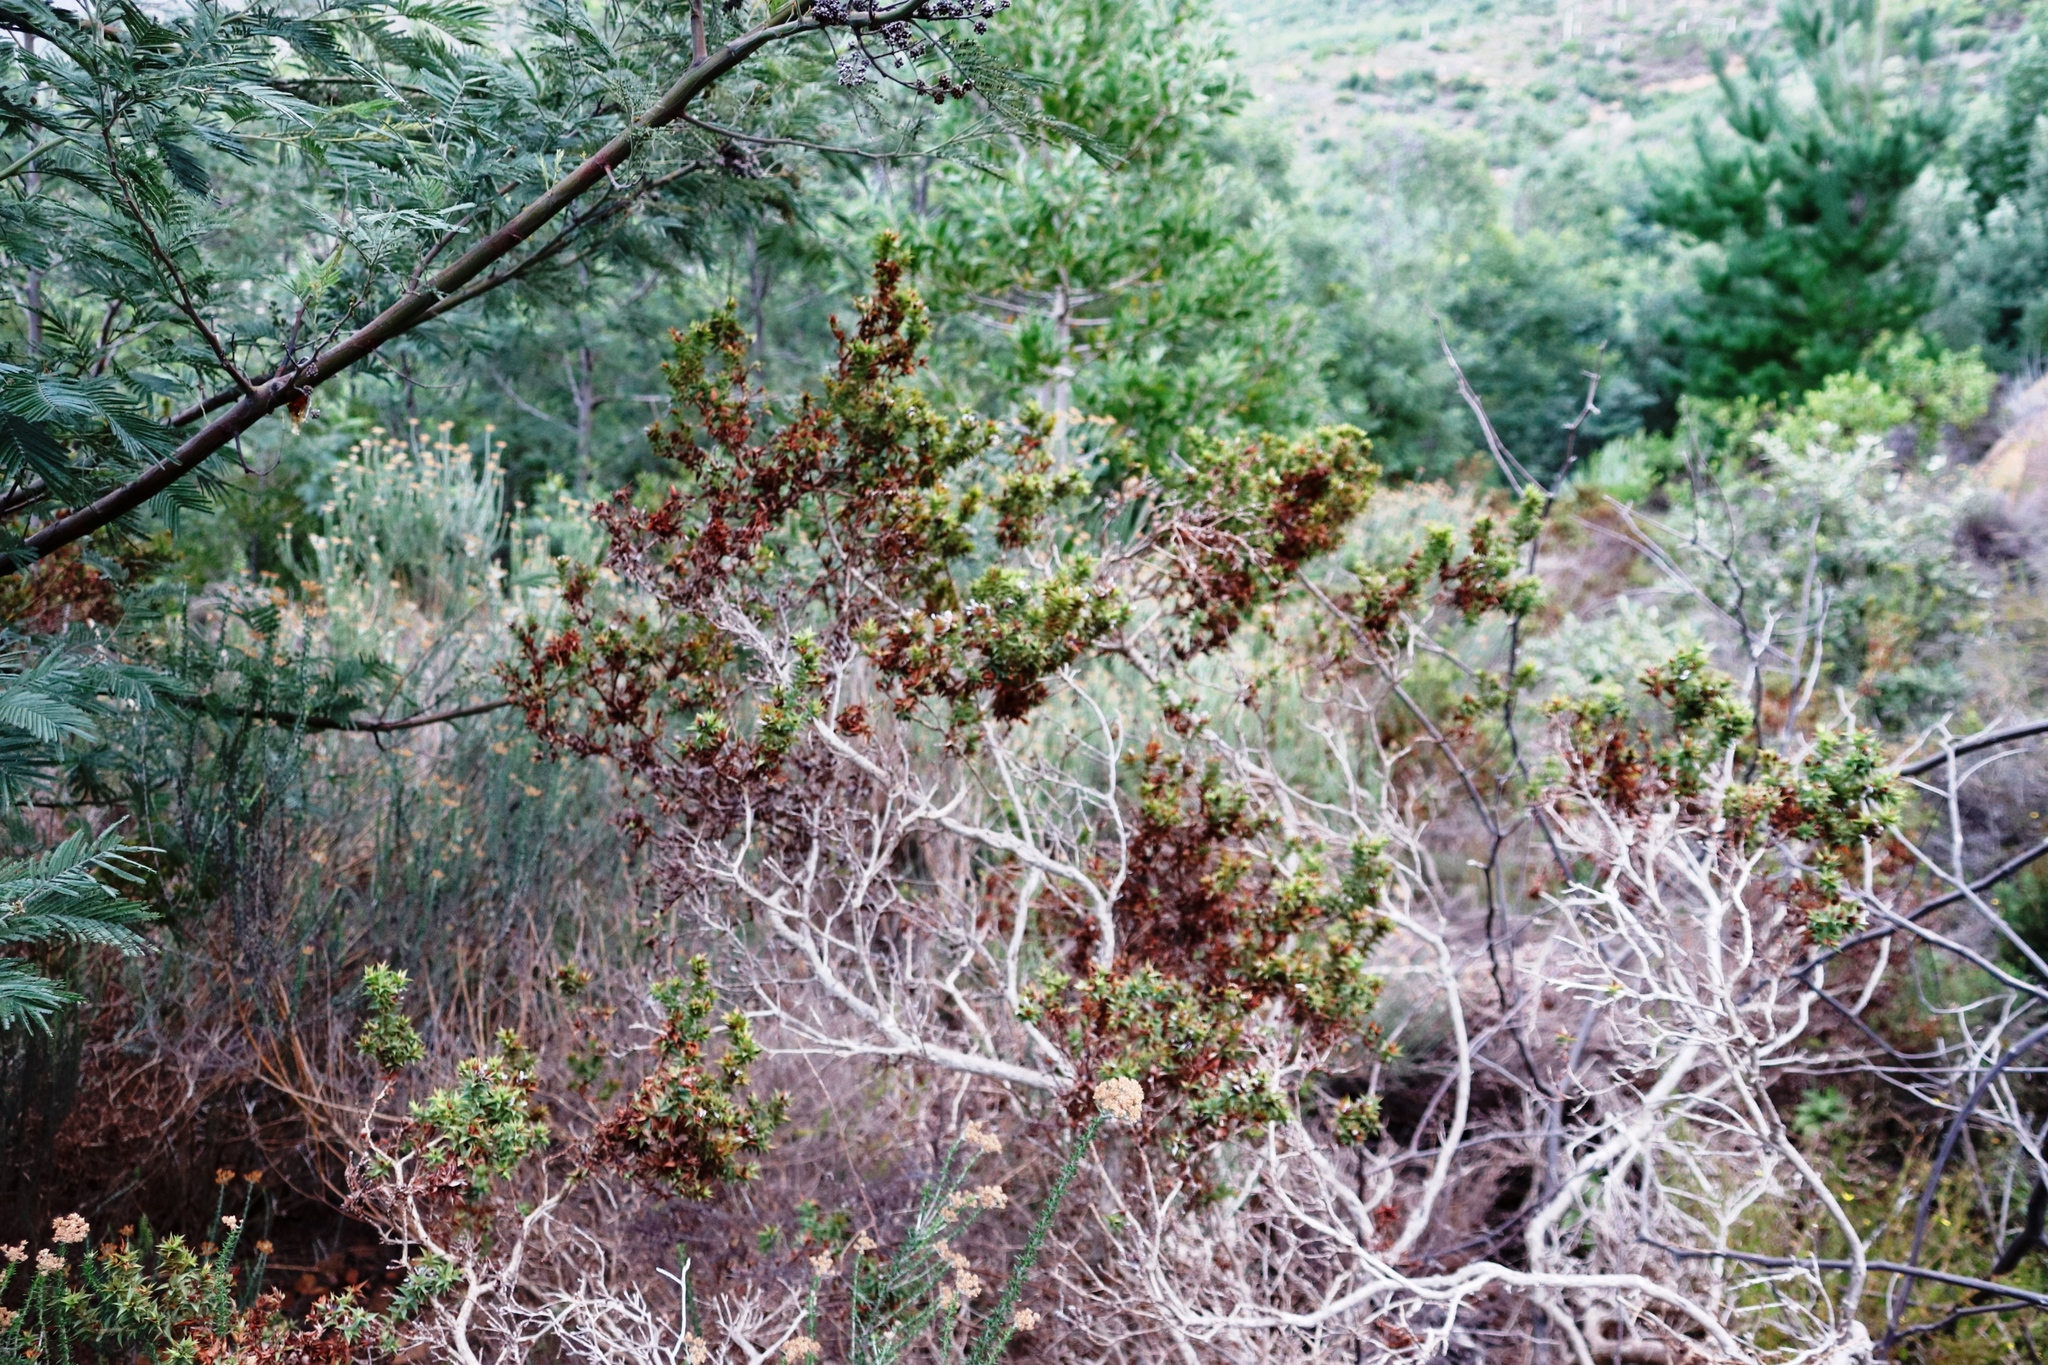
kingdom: Plantae
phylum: Tracheophyta
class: Magnoliopsida
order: Fabales
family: Fabaceae
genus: Aspalathus
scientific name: Aspalathus cordata
